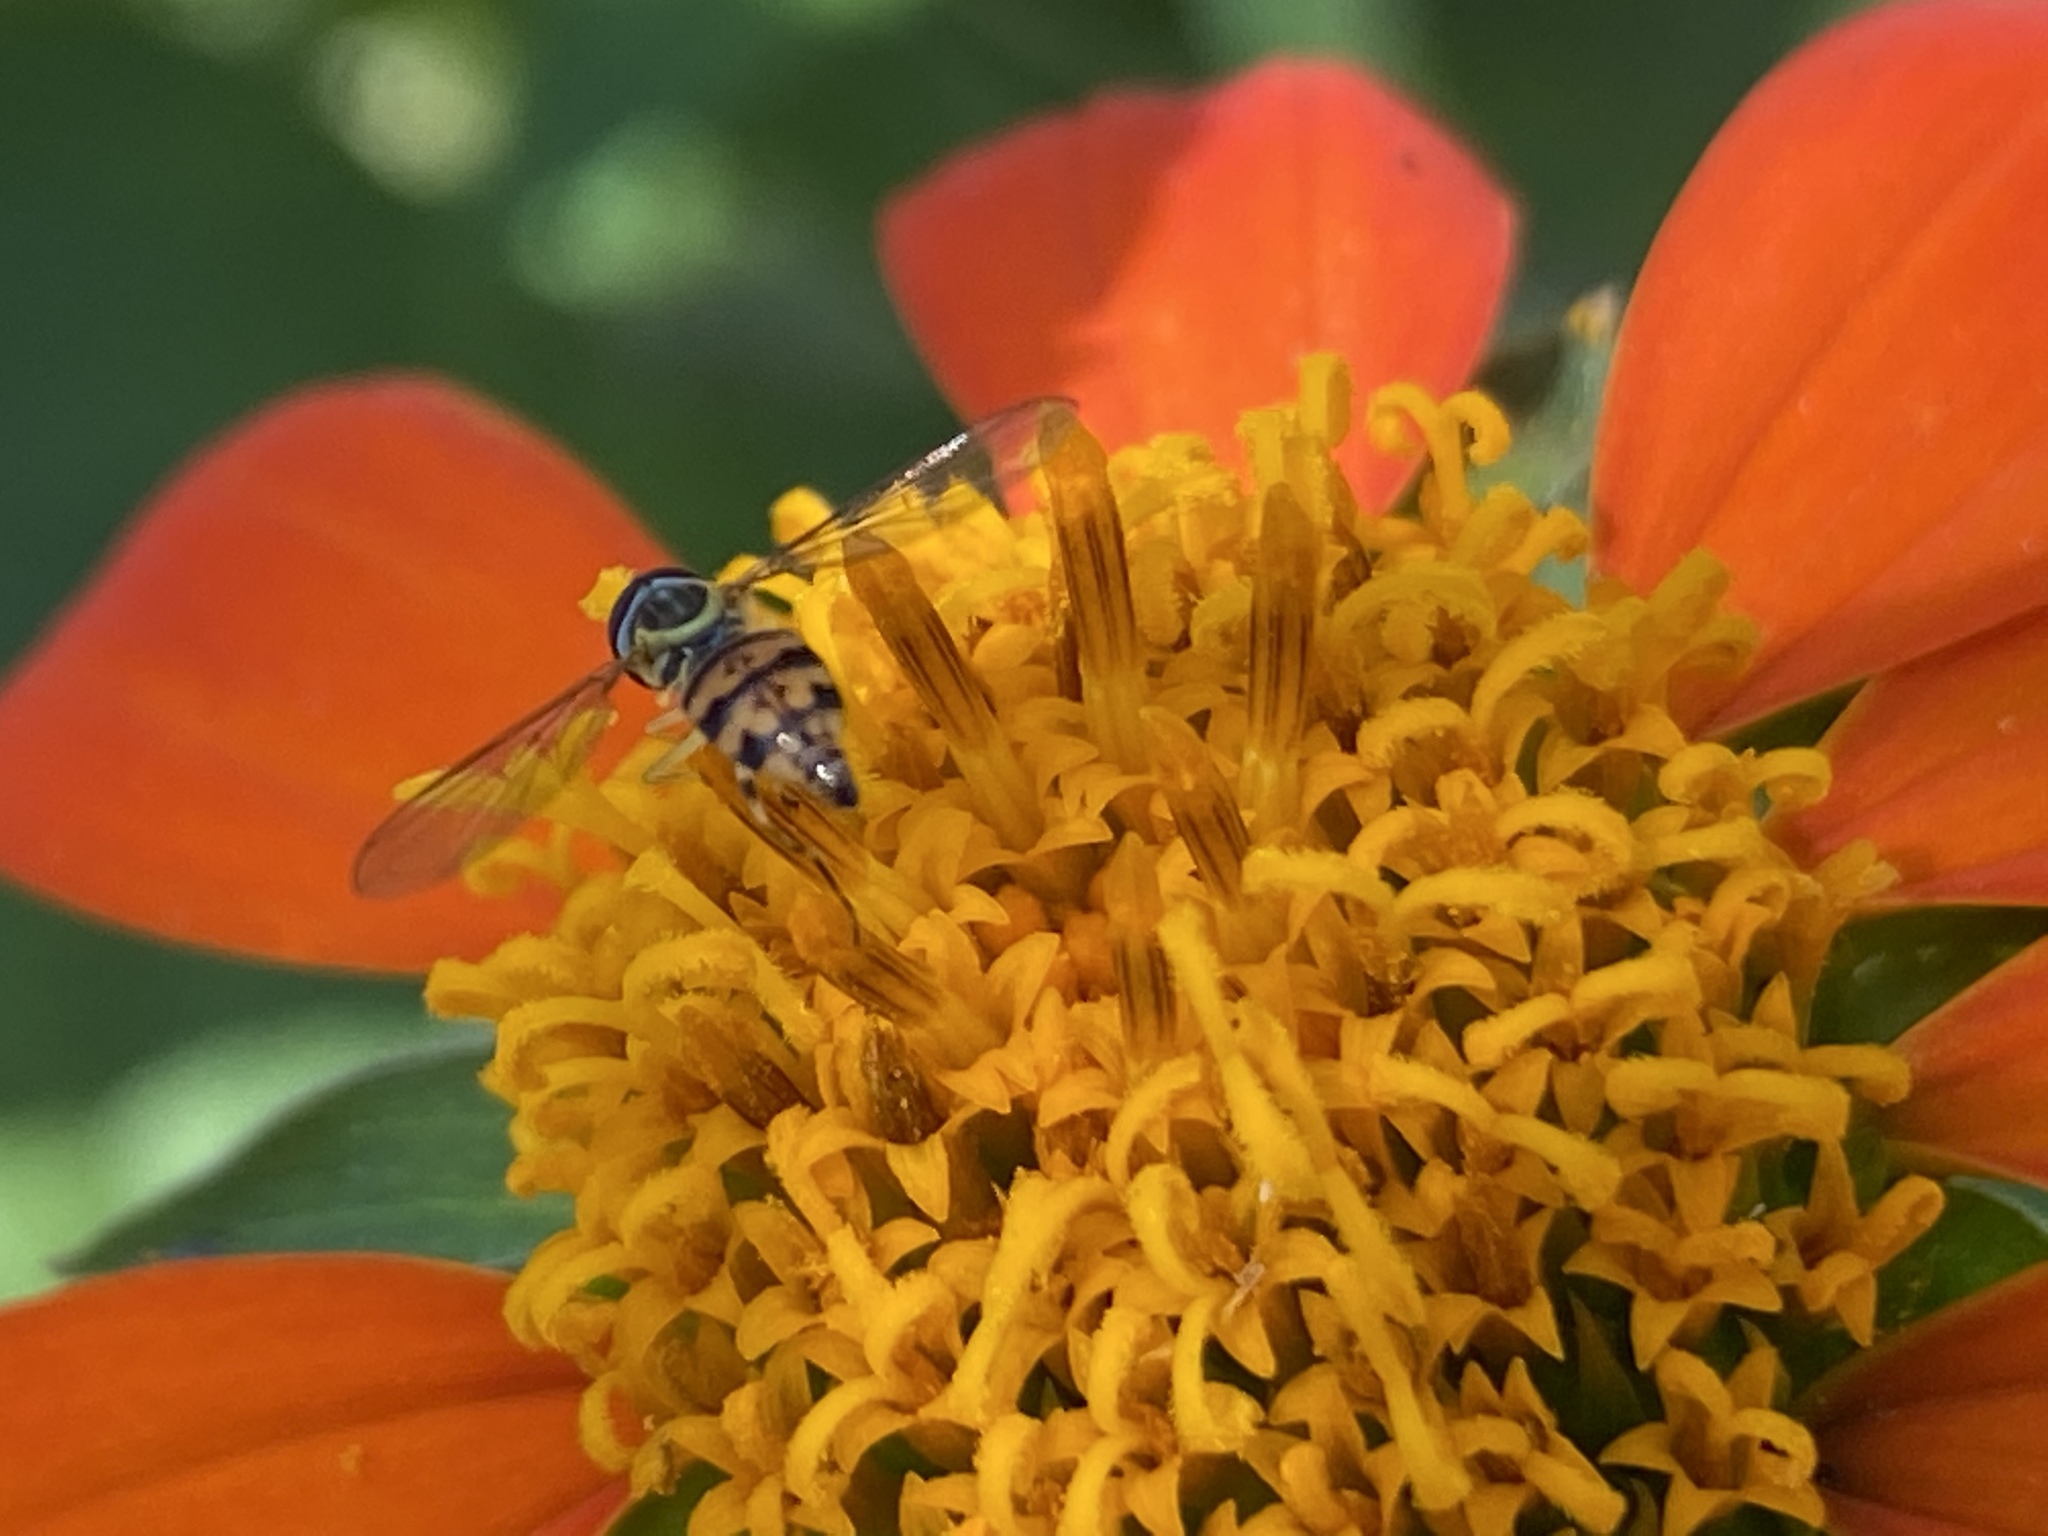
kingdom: Animalia
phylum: Arthropoda
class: Insecta
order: Diptera
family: Syrphidae
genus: Toxomerus
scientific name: Toxomerus geminatus
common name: Eastern calligrapher
